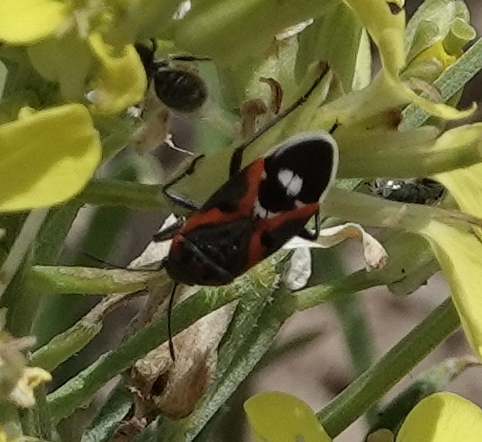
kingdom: Animalia
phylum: Arthropoda
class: Insecta
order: Hemiptera
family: Lygaeidae
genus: Lygaeus
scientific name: Lygaeus kalmii
